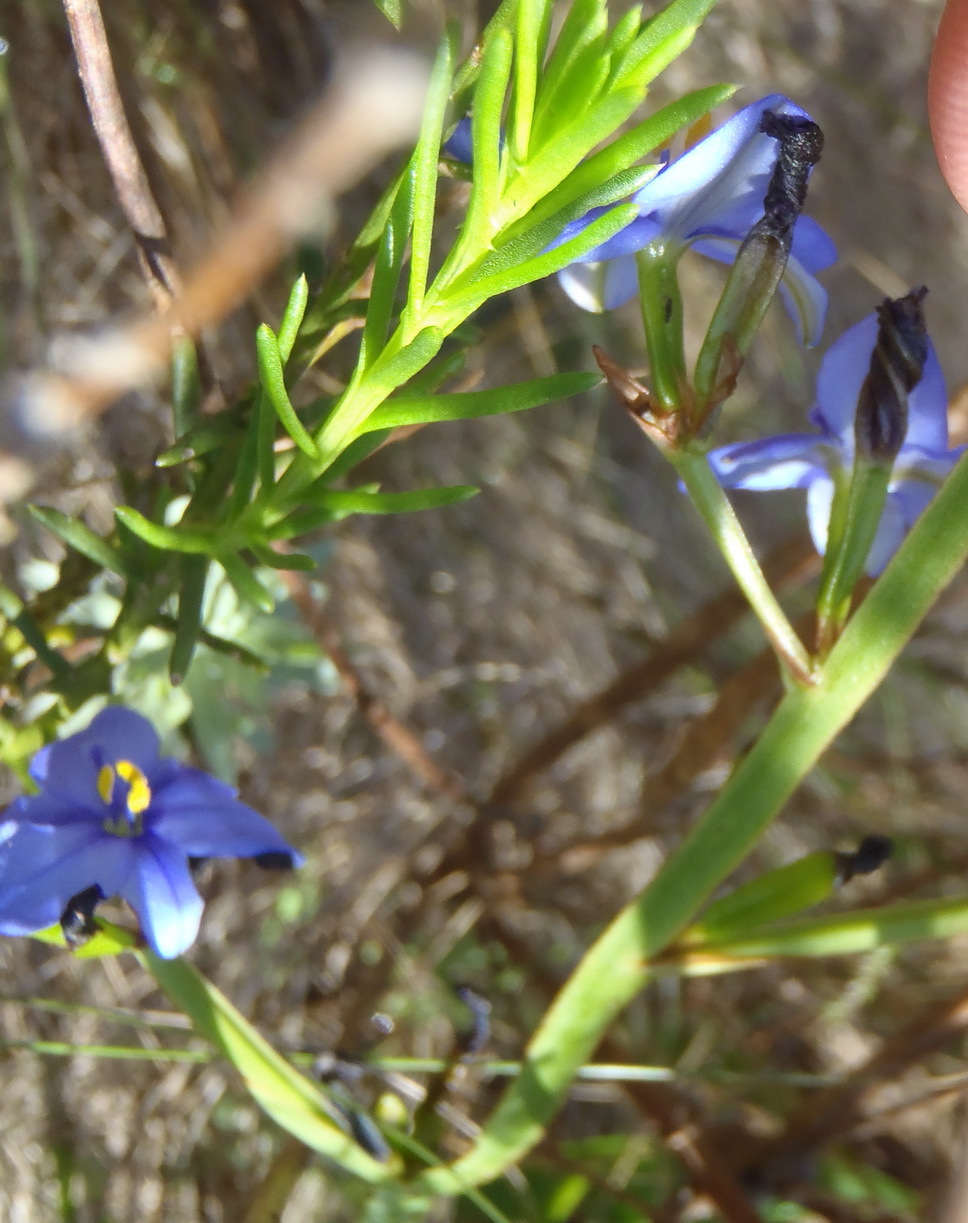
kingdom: Plantae
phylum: Tracheophyta
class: Liliopsida
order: Asparagales
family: Iridaceae
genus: Aristea
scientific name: Aristea bakeri
